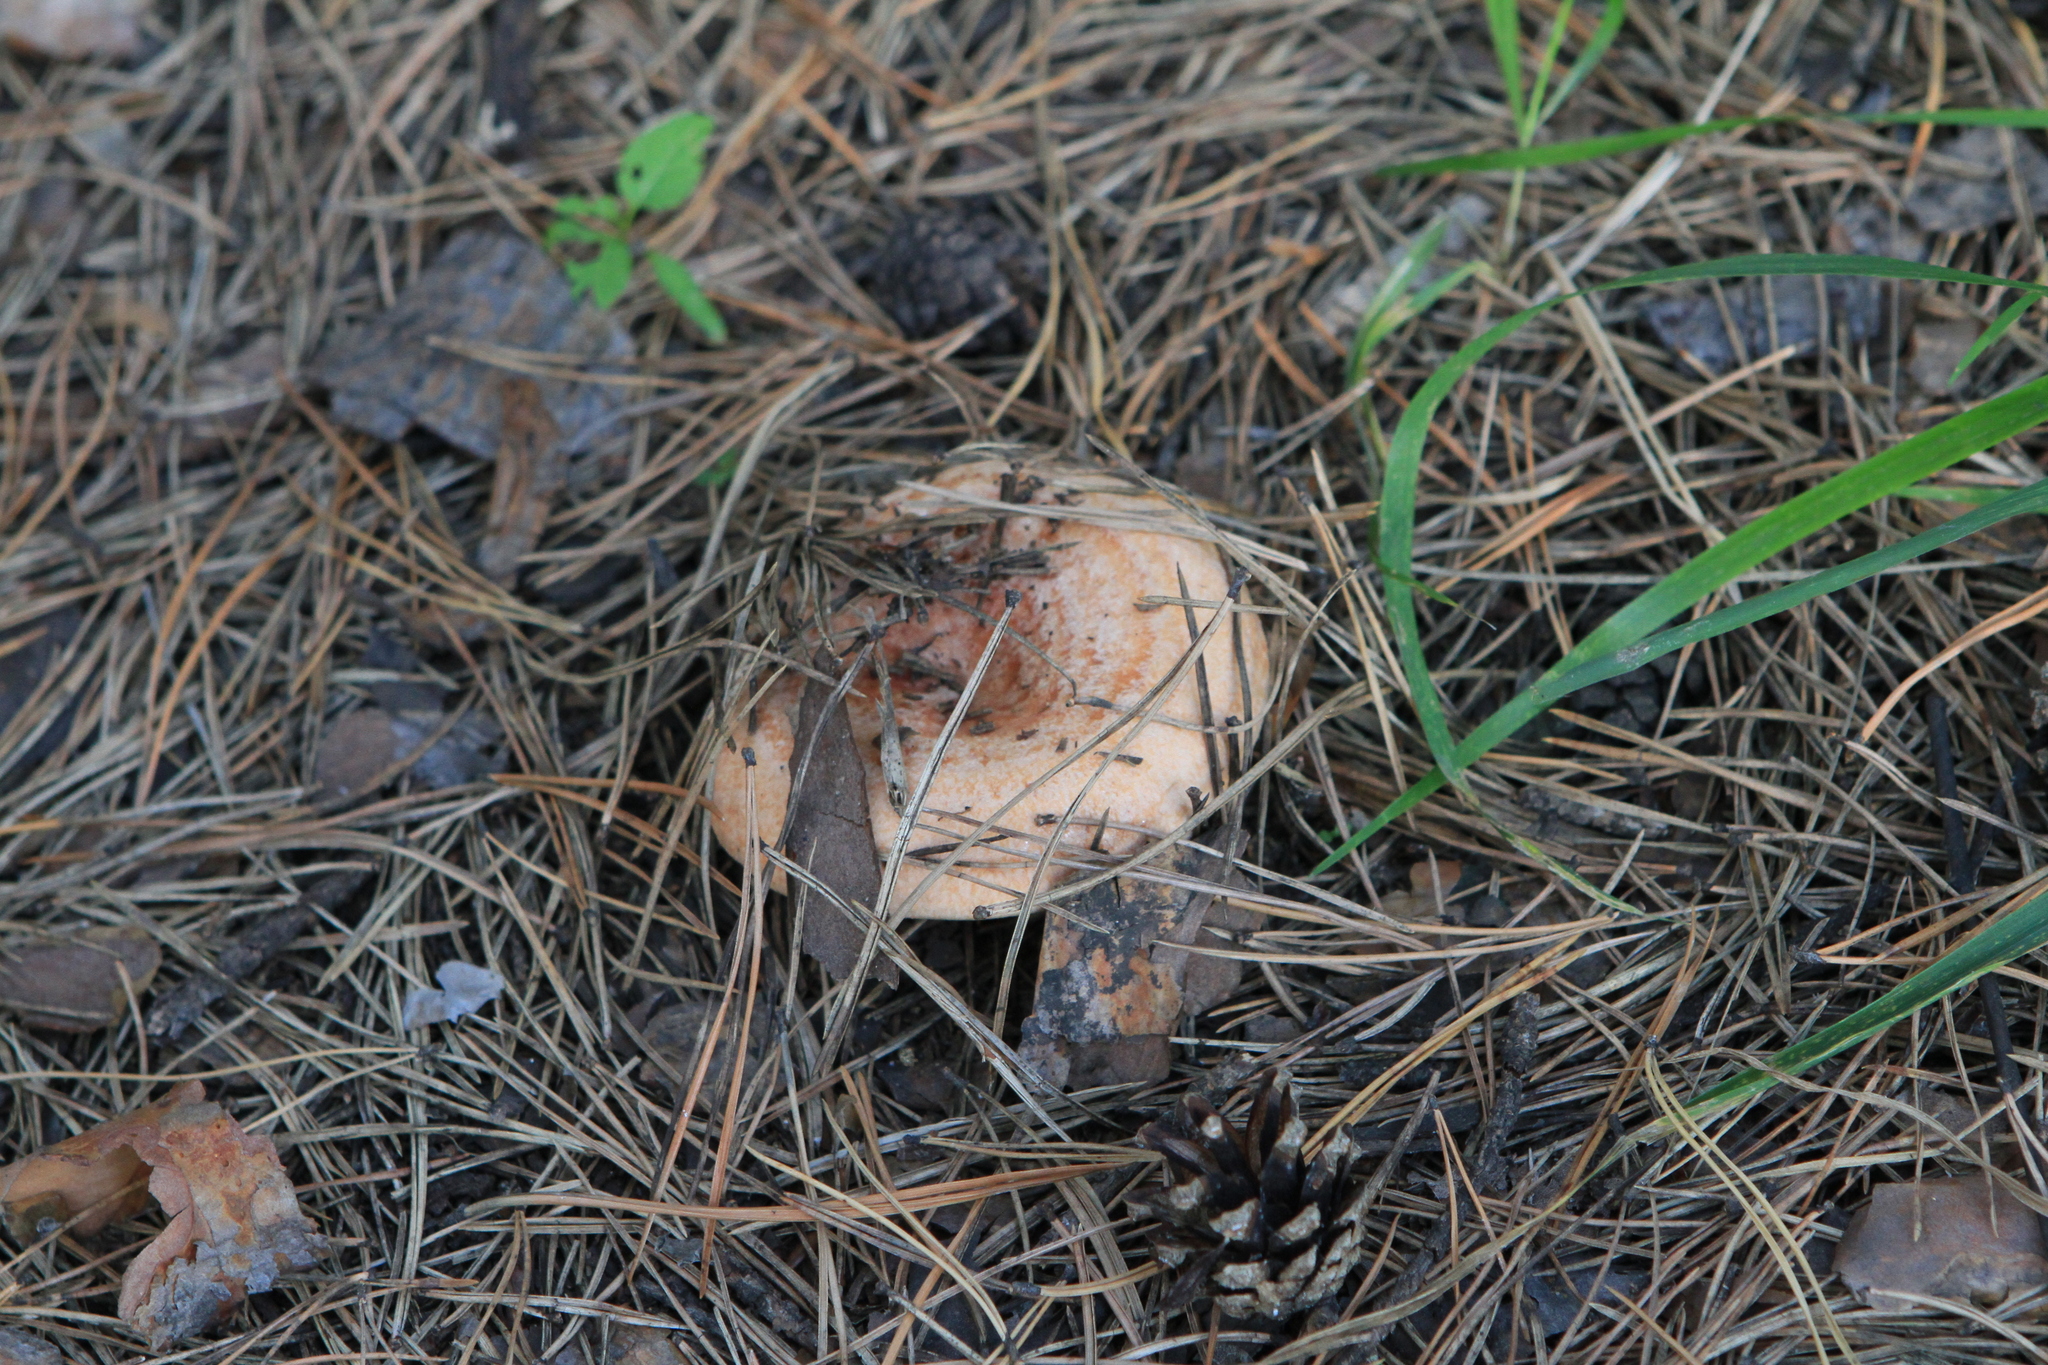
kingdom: Fungi
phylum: Basidiomycota
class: Agaricomycetes
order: Russulales
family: Russulaceae
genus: Lactarius
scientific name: Lactarius deliciosus
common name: Saffron milk-cap
